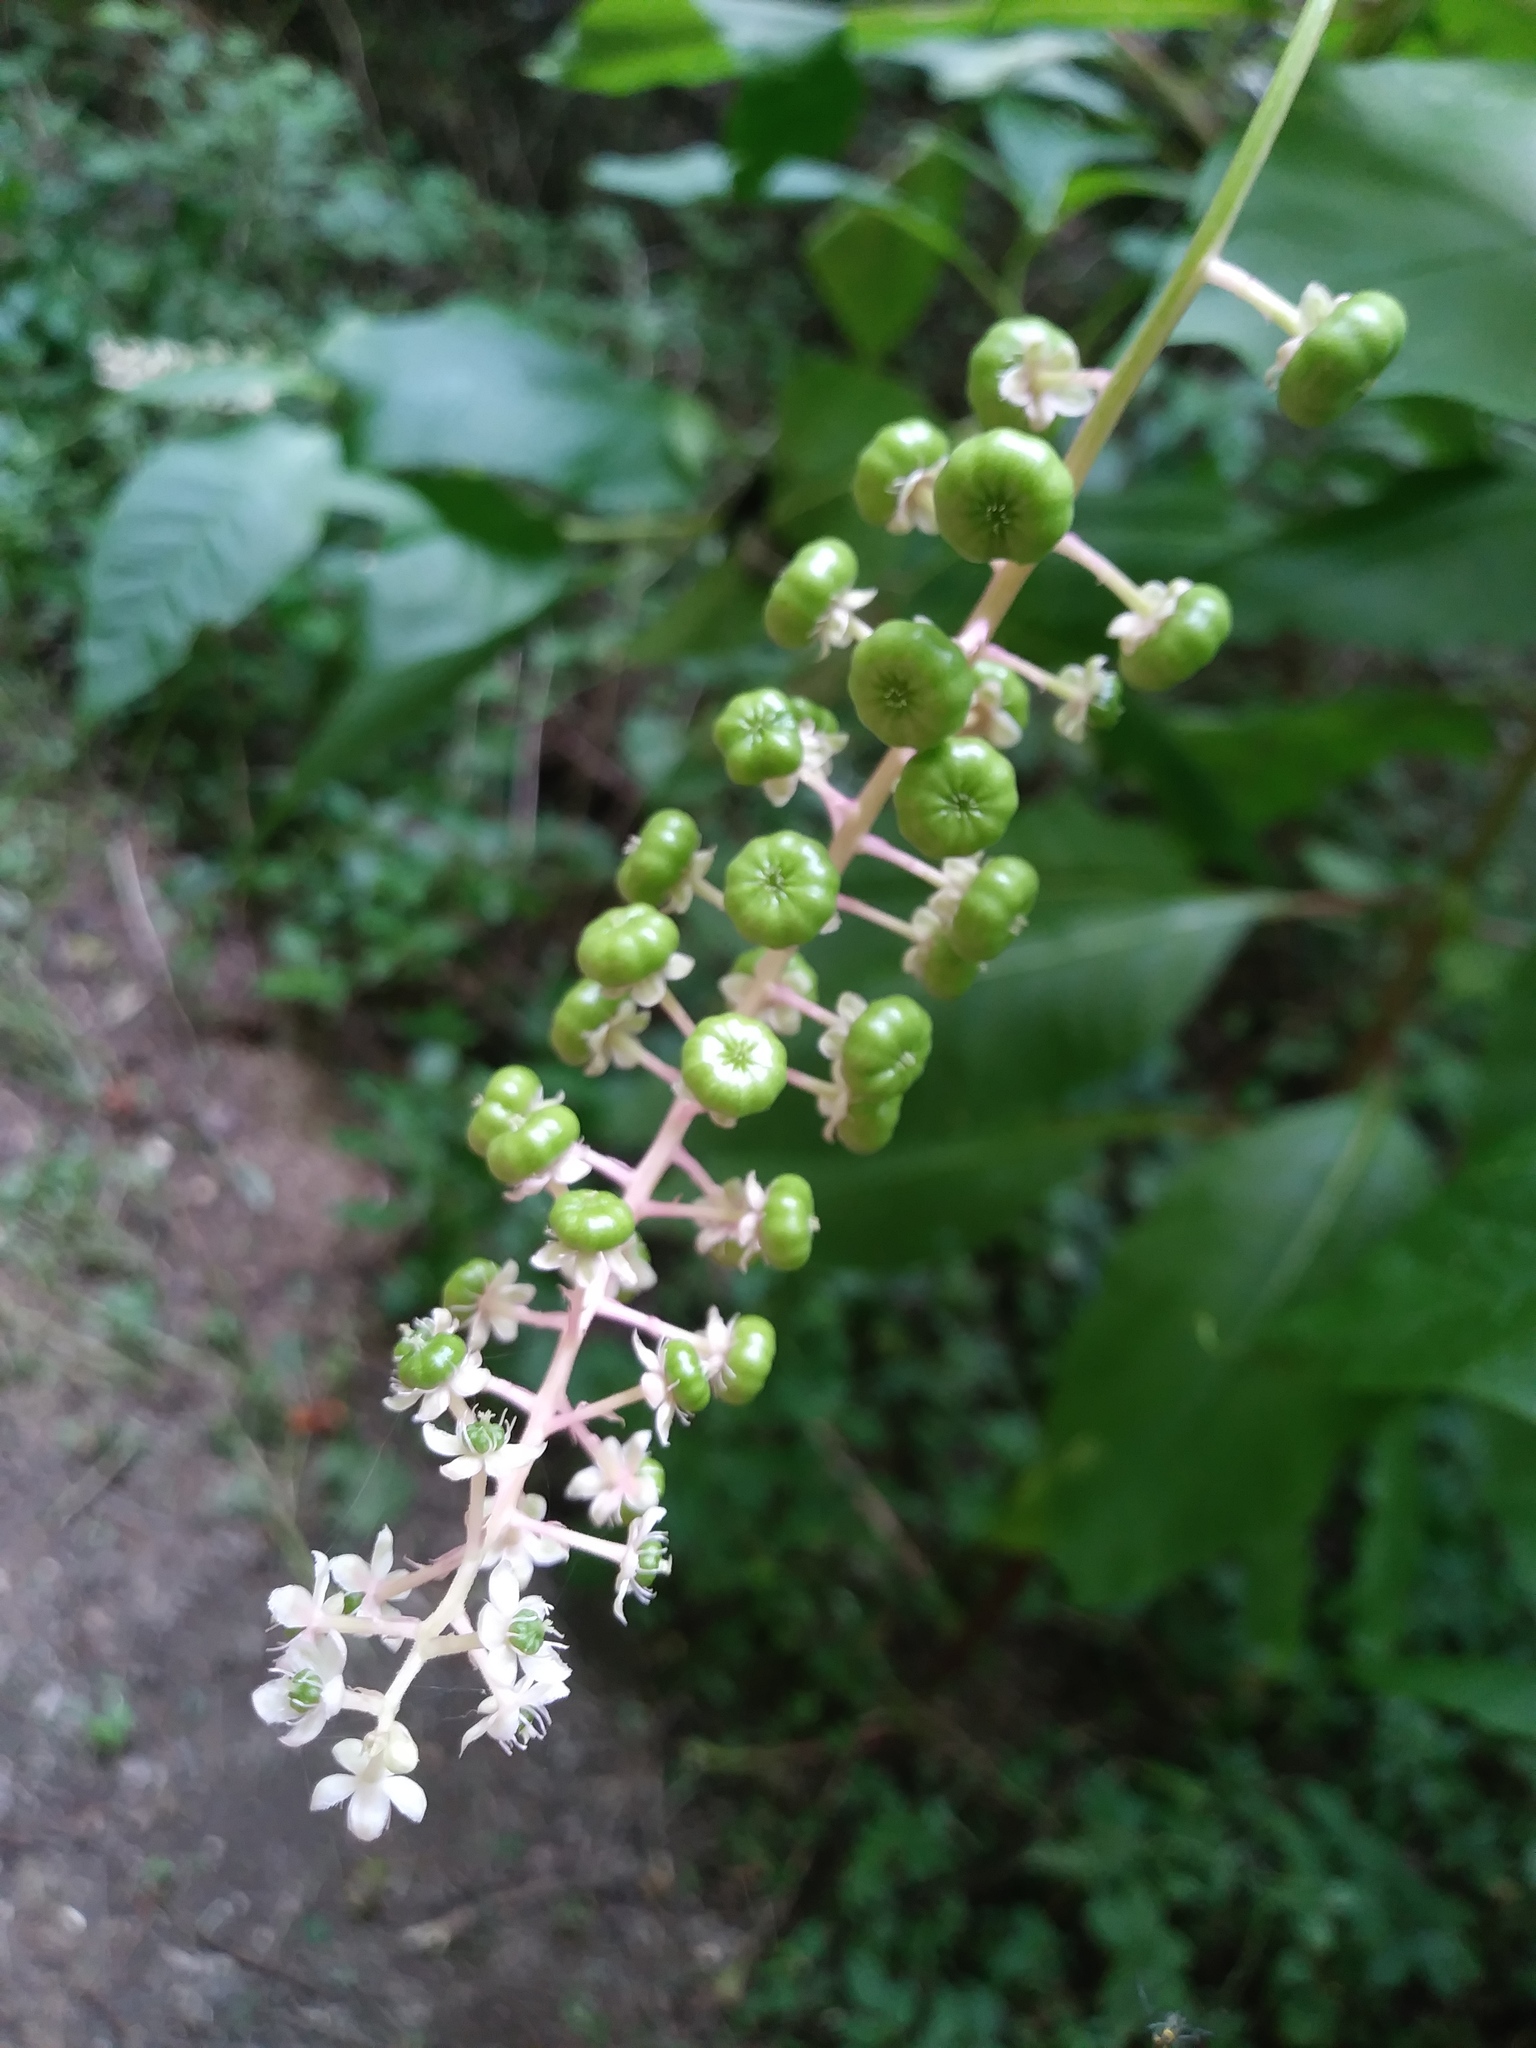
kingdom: Plantae
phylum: Tracheophyta
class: Magnoliopsida
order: Caryophyllales
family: Phytolaccaceae
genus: Phytolacca
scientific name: Phytolacca americana
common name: American pokeweed
